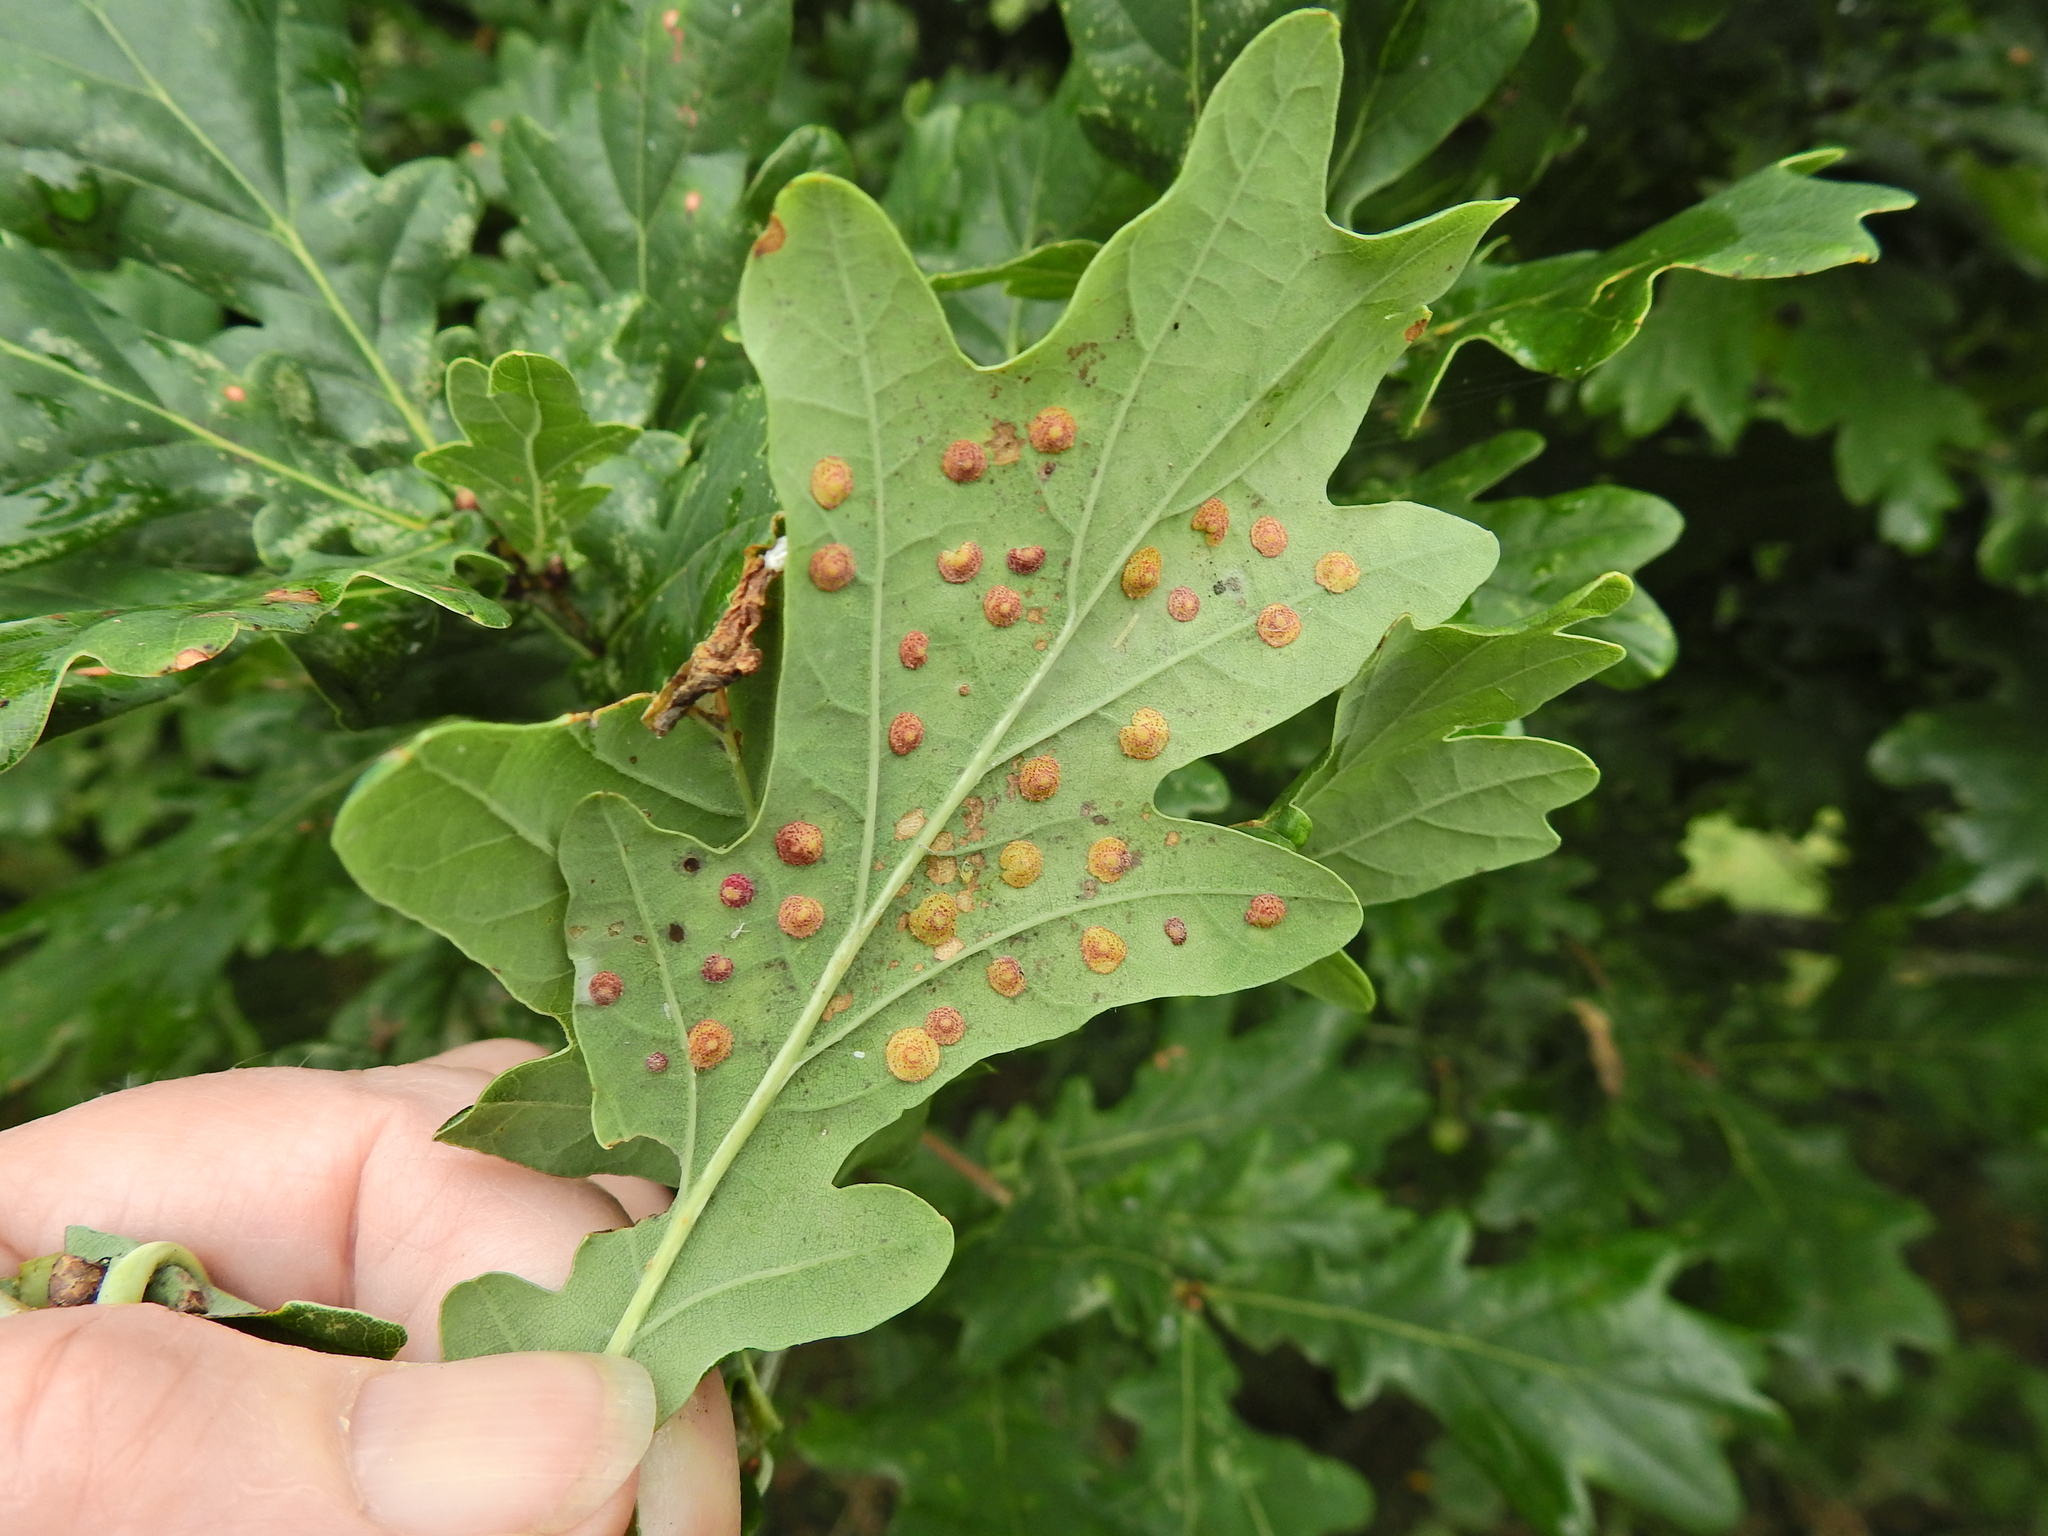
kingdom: Animalia
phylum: Arthropoda
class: Insecta
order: Hymenoptera
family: Cynipidae
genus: Neuroterus
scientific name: Neuroterus quercusbaccarum
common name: Common spangle gall
